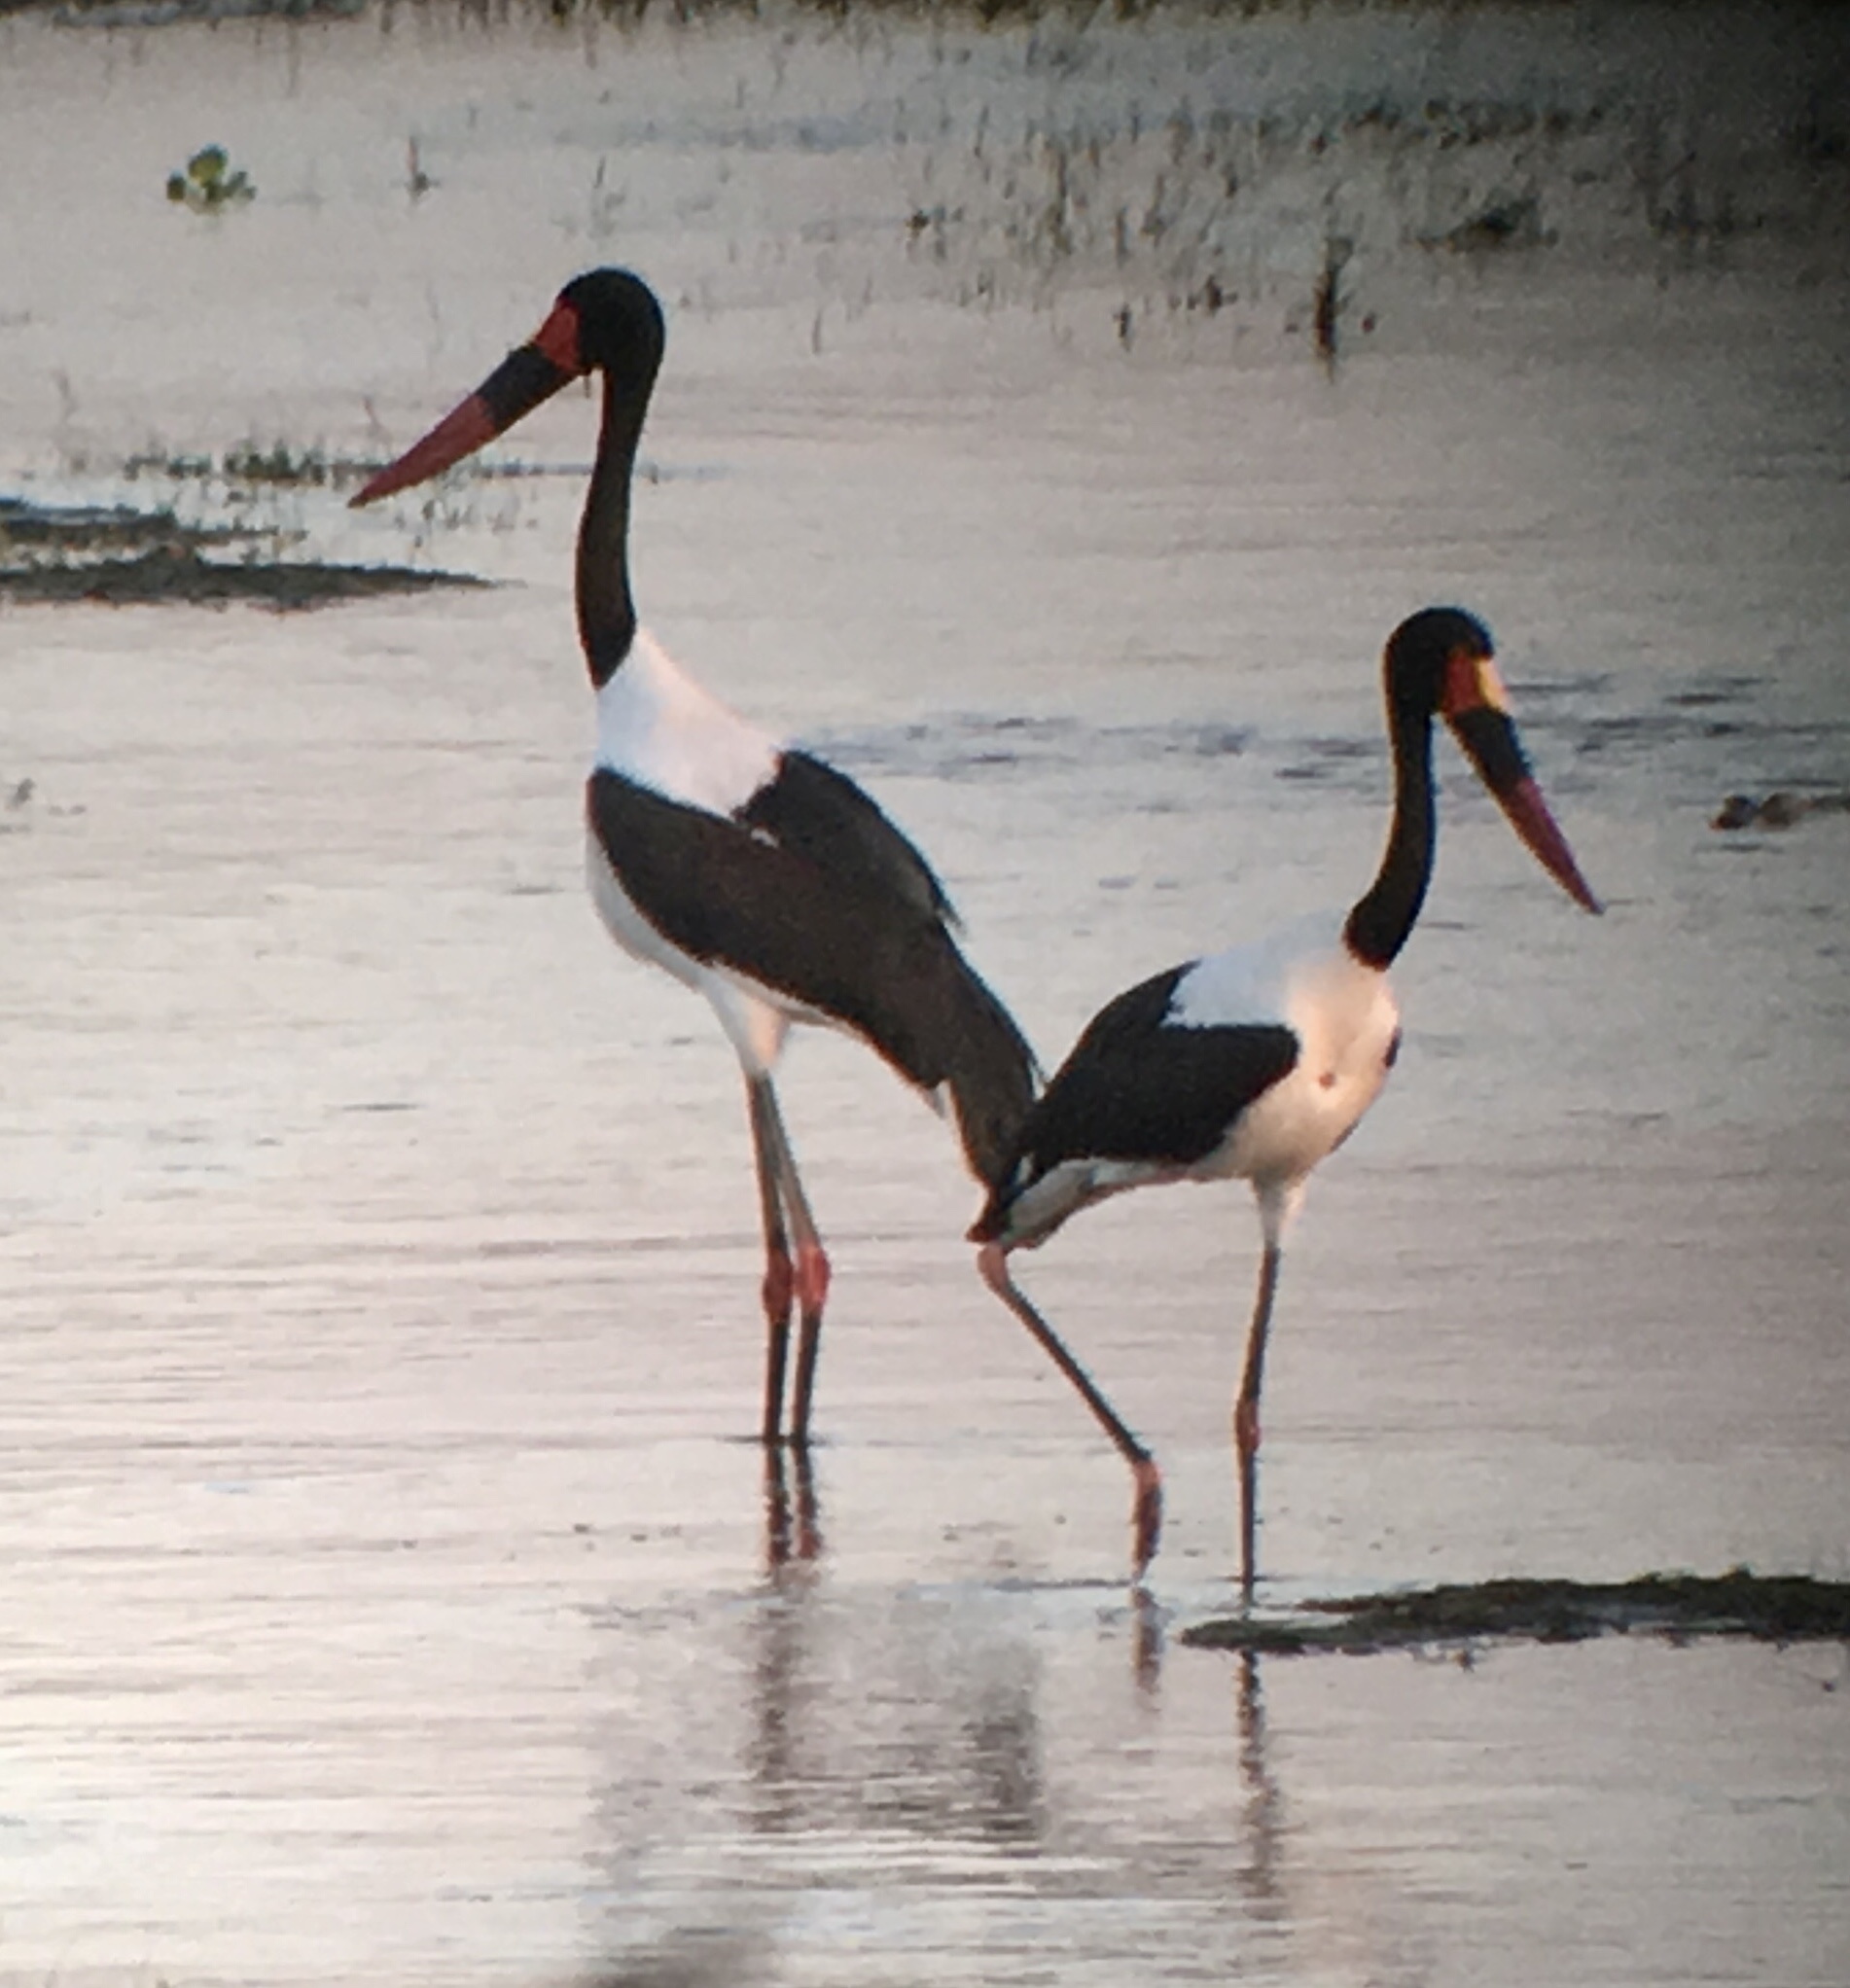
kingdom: Animalia
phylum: Chordata
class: Aves
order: Ciconiiformes
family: Ciconiidae
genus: Ephippiorhynchus
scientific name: Ephippiorhynchus senegalensis
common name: Saddle-billed stork
